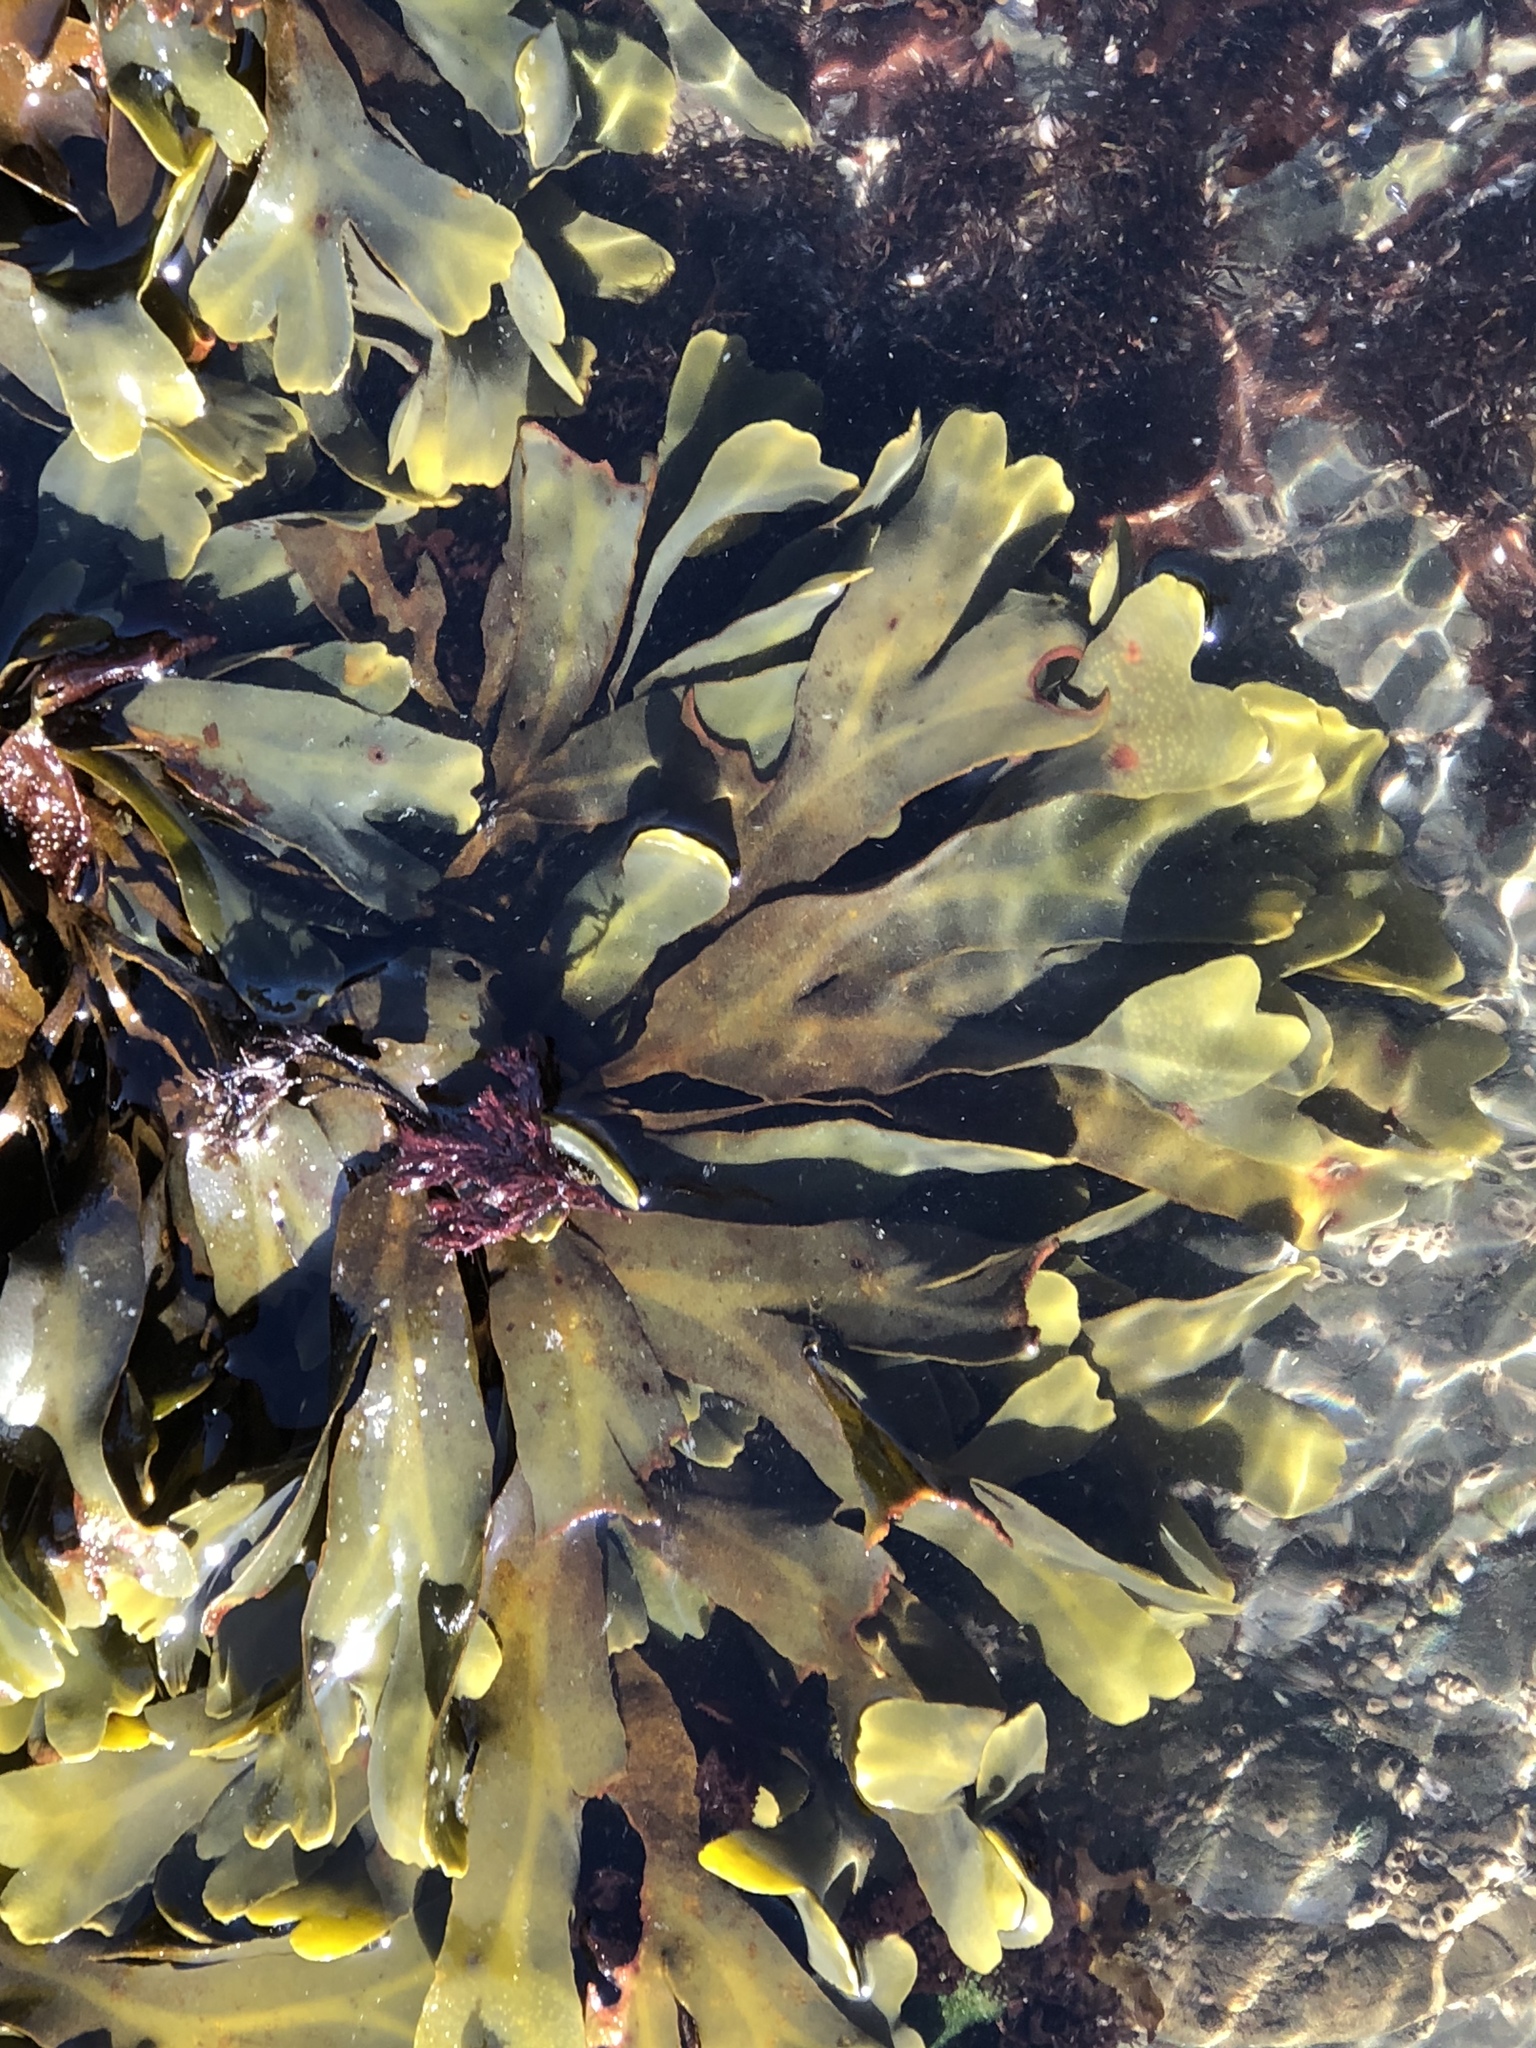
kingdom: Chromista
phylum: Ochrophyta
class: Phaeophyceae
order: Fucales
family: Fucaceae
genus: Fucus
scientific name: Fucus distichus
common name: Rockweed
